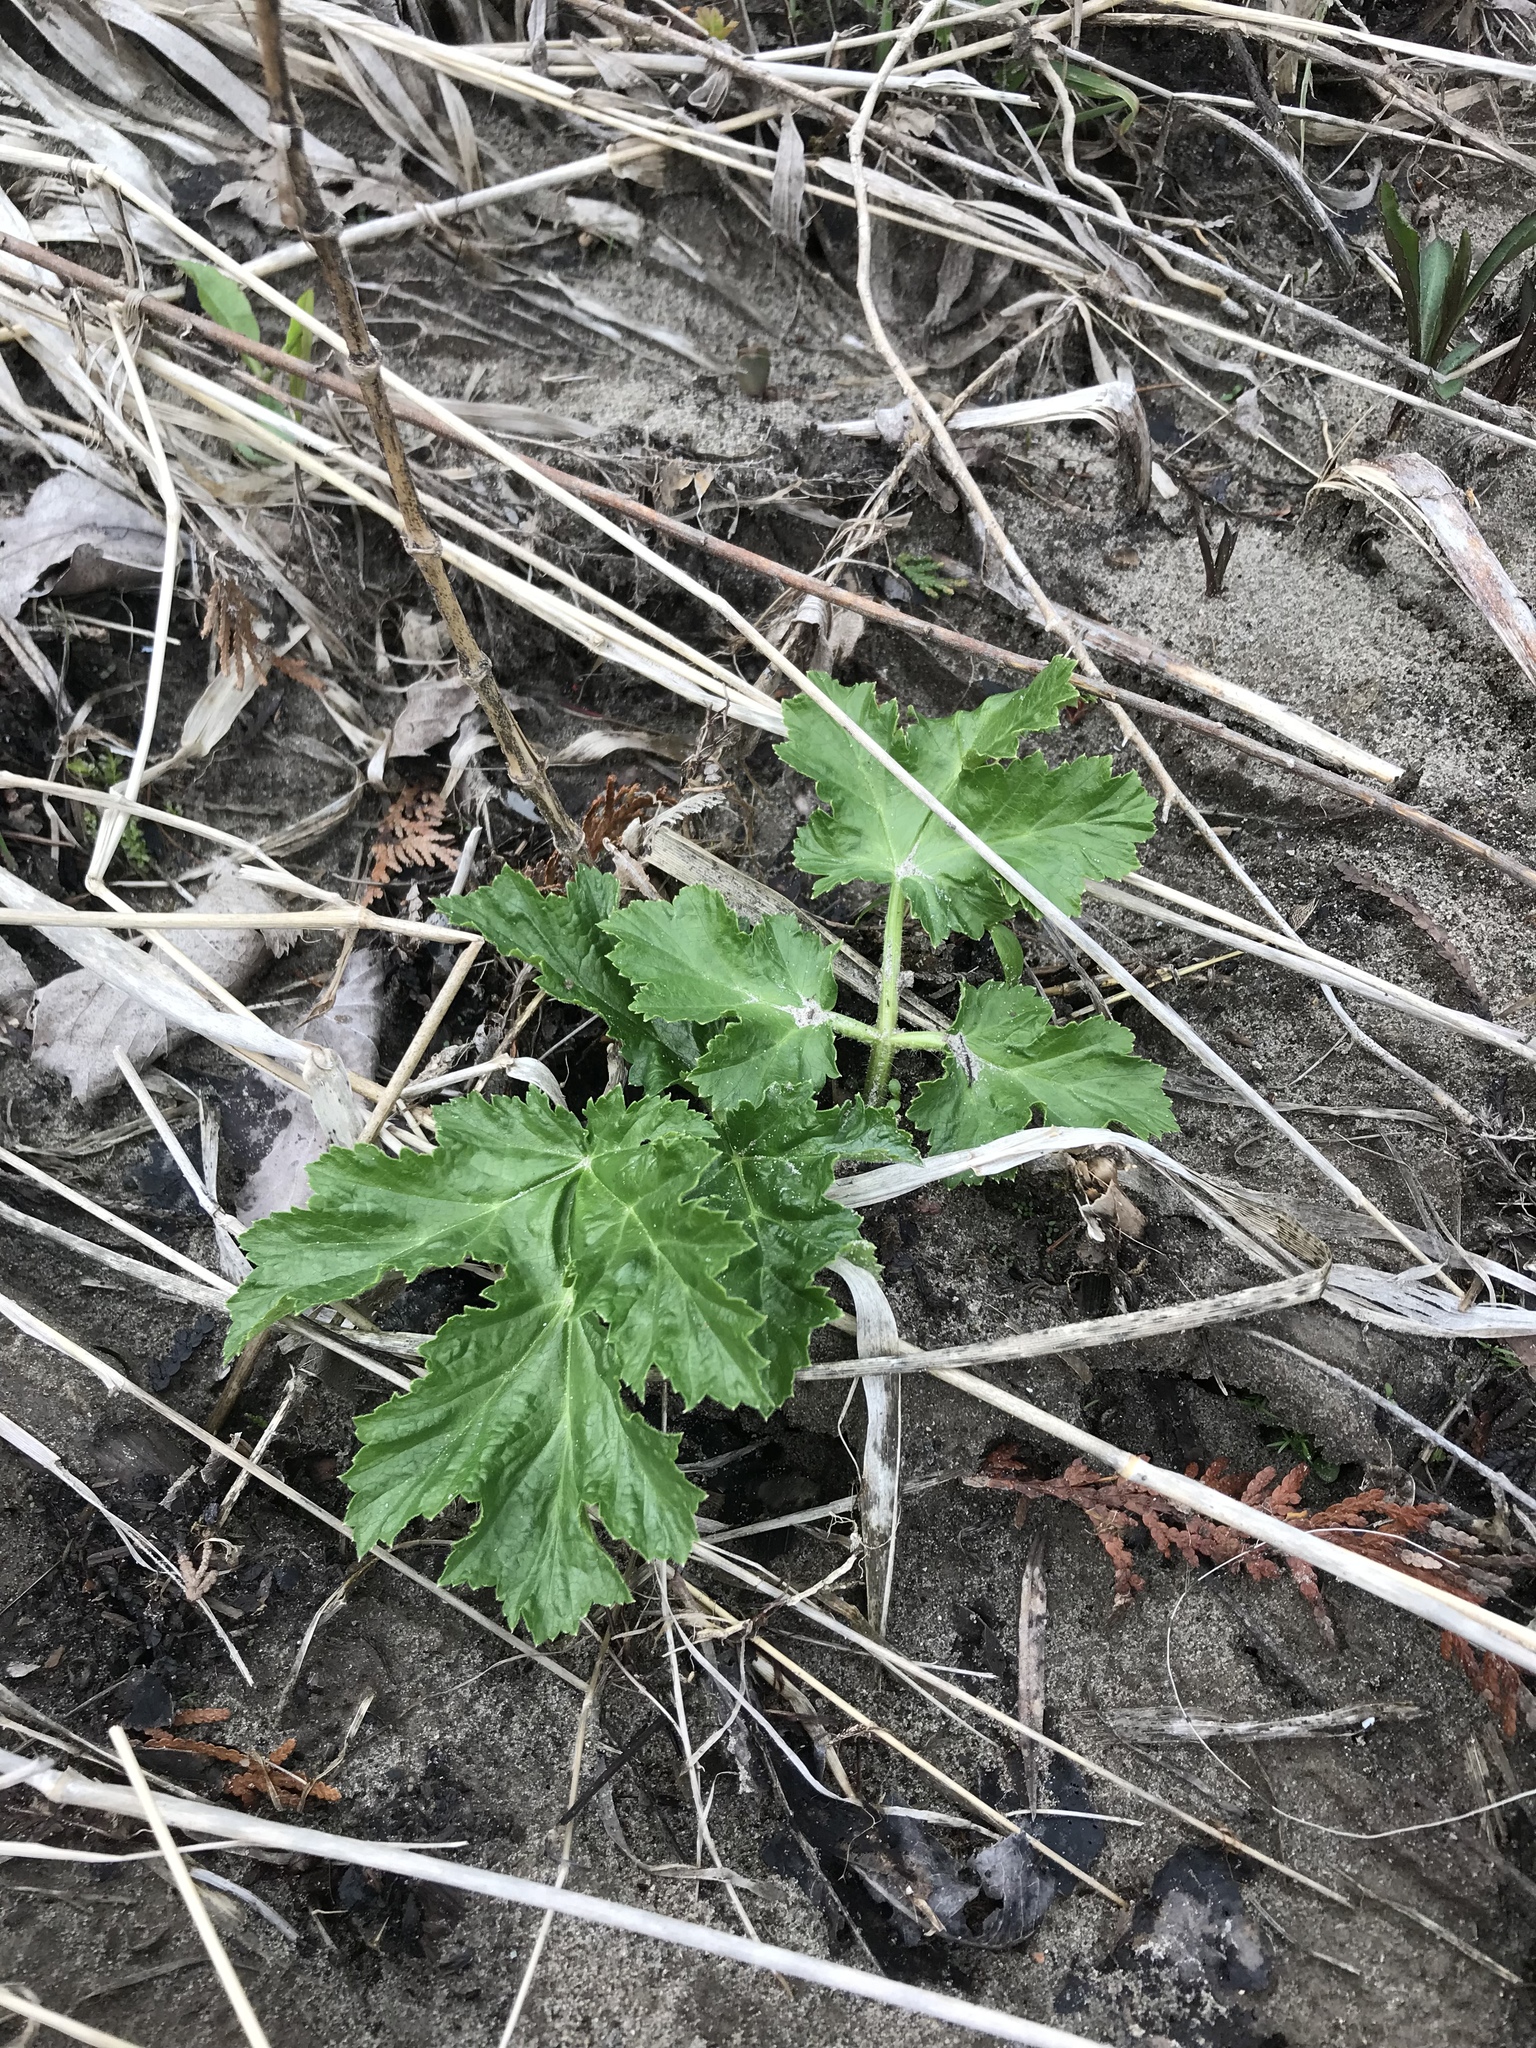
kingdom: Plantae
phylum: Tracheophyta
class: Magnoliopsida
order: Apiales
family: Apiaceae
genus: Heracleum
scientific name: Heracleum mantegazzianum
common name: Giant hogweed
